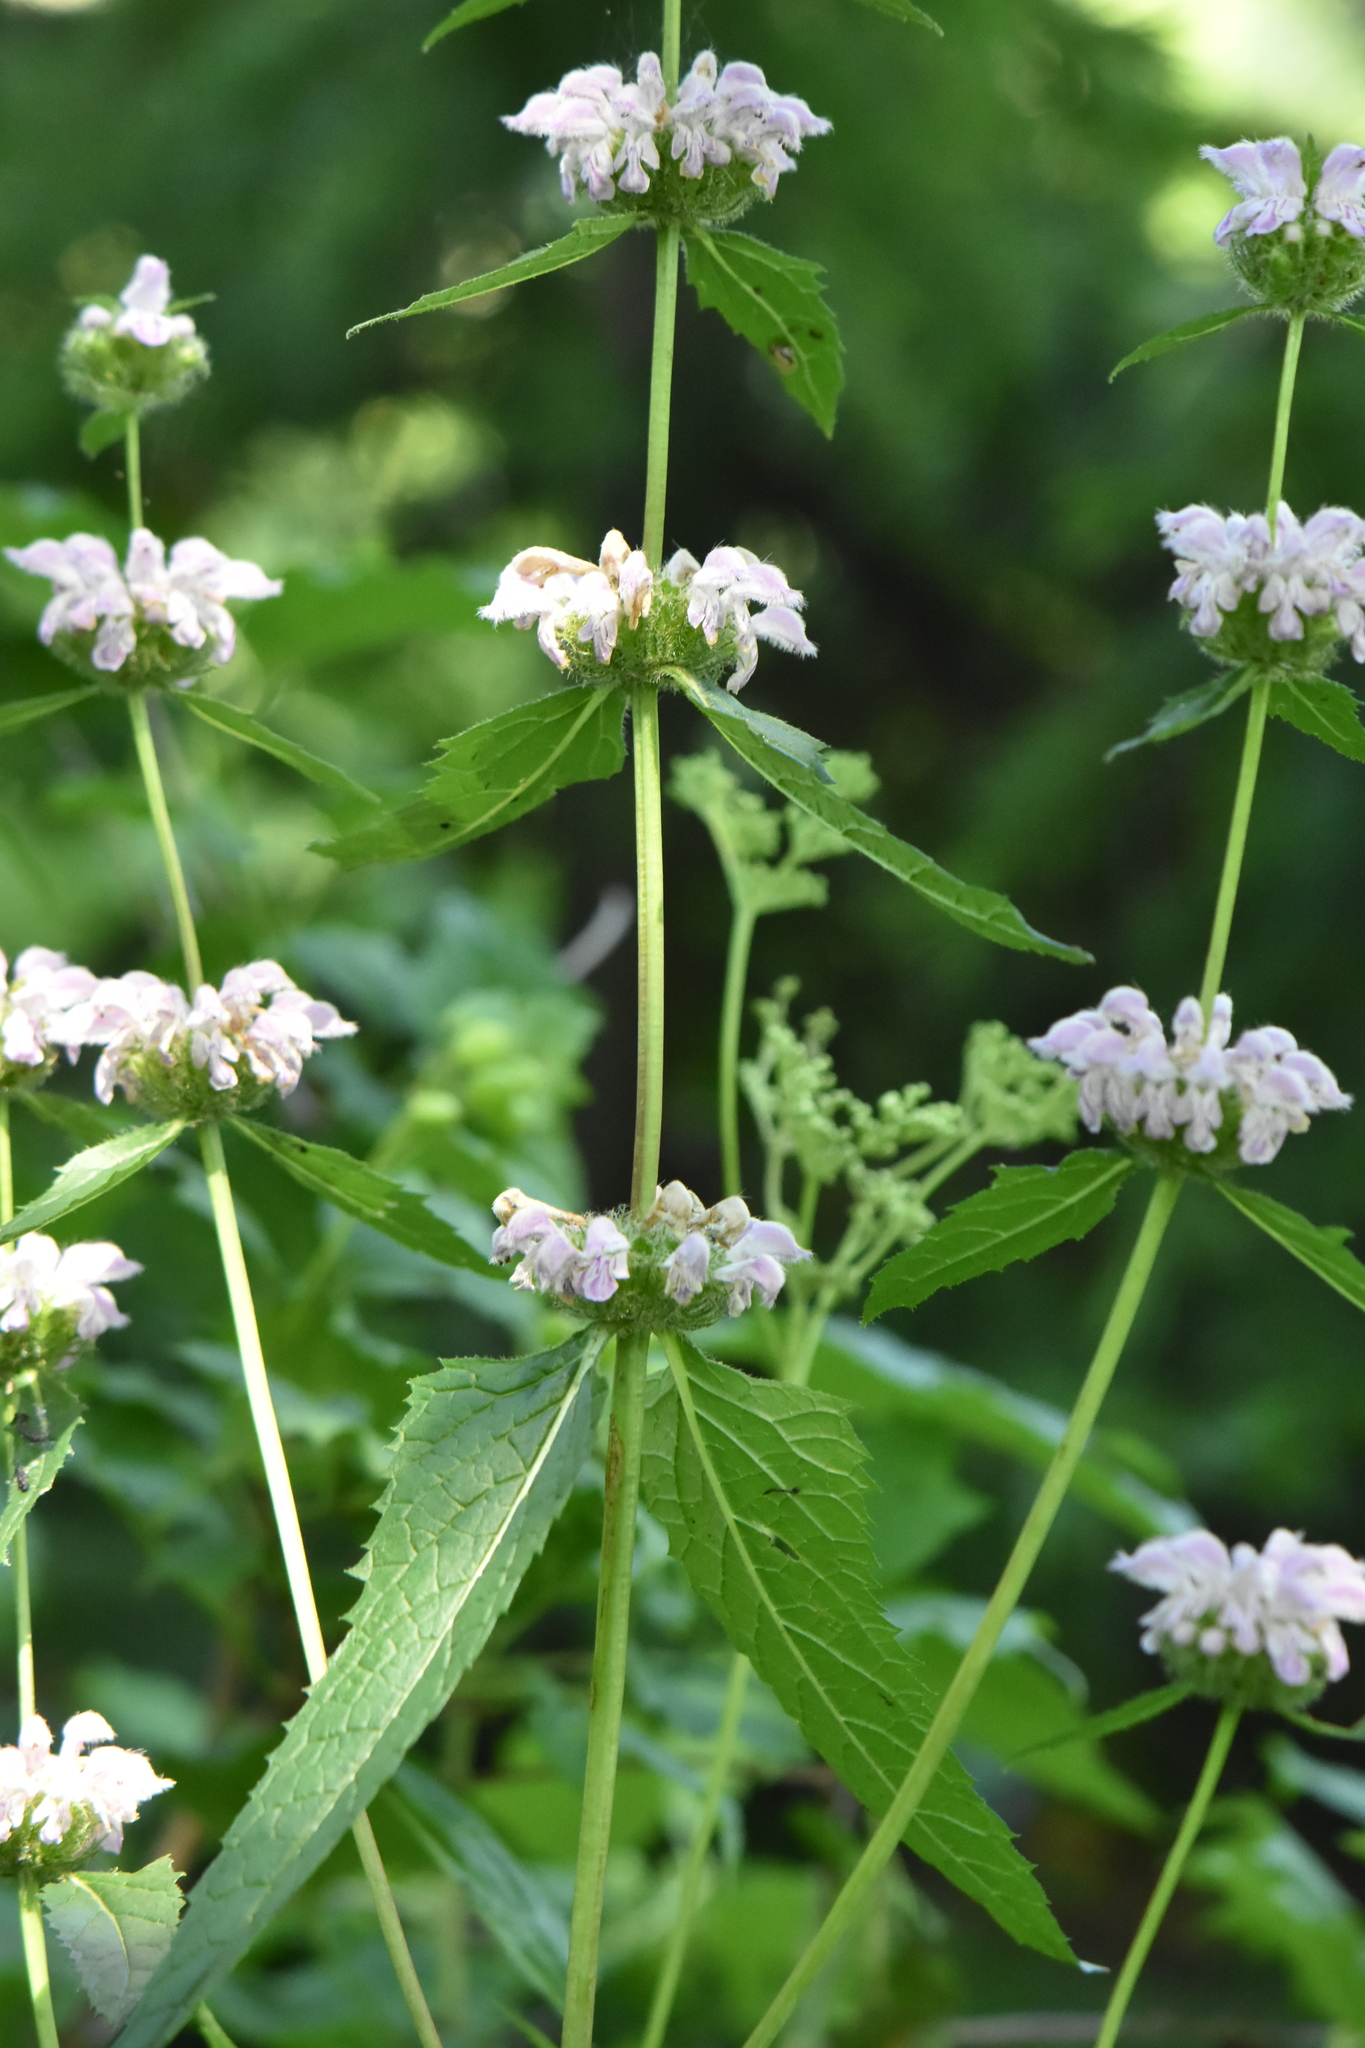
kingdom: Plantae
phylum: Tracheophyta
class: Magnoliopsida
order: Lamiales
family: Lamiaceae
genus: Phlomoides
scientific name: Phlomoides tuberosa
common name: Tuberous jerusalem sage
